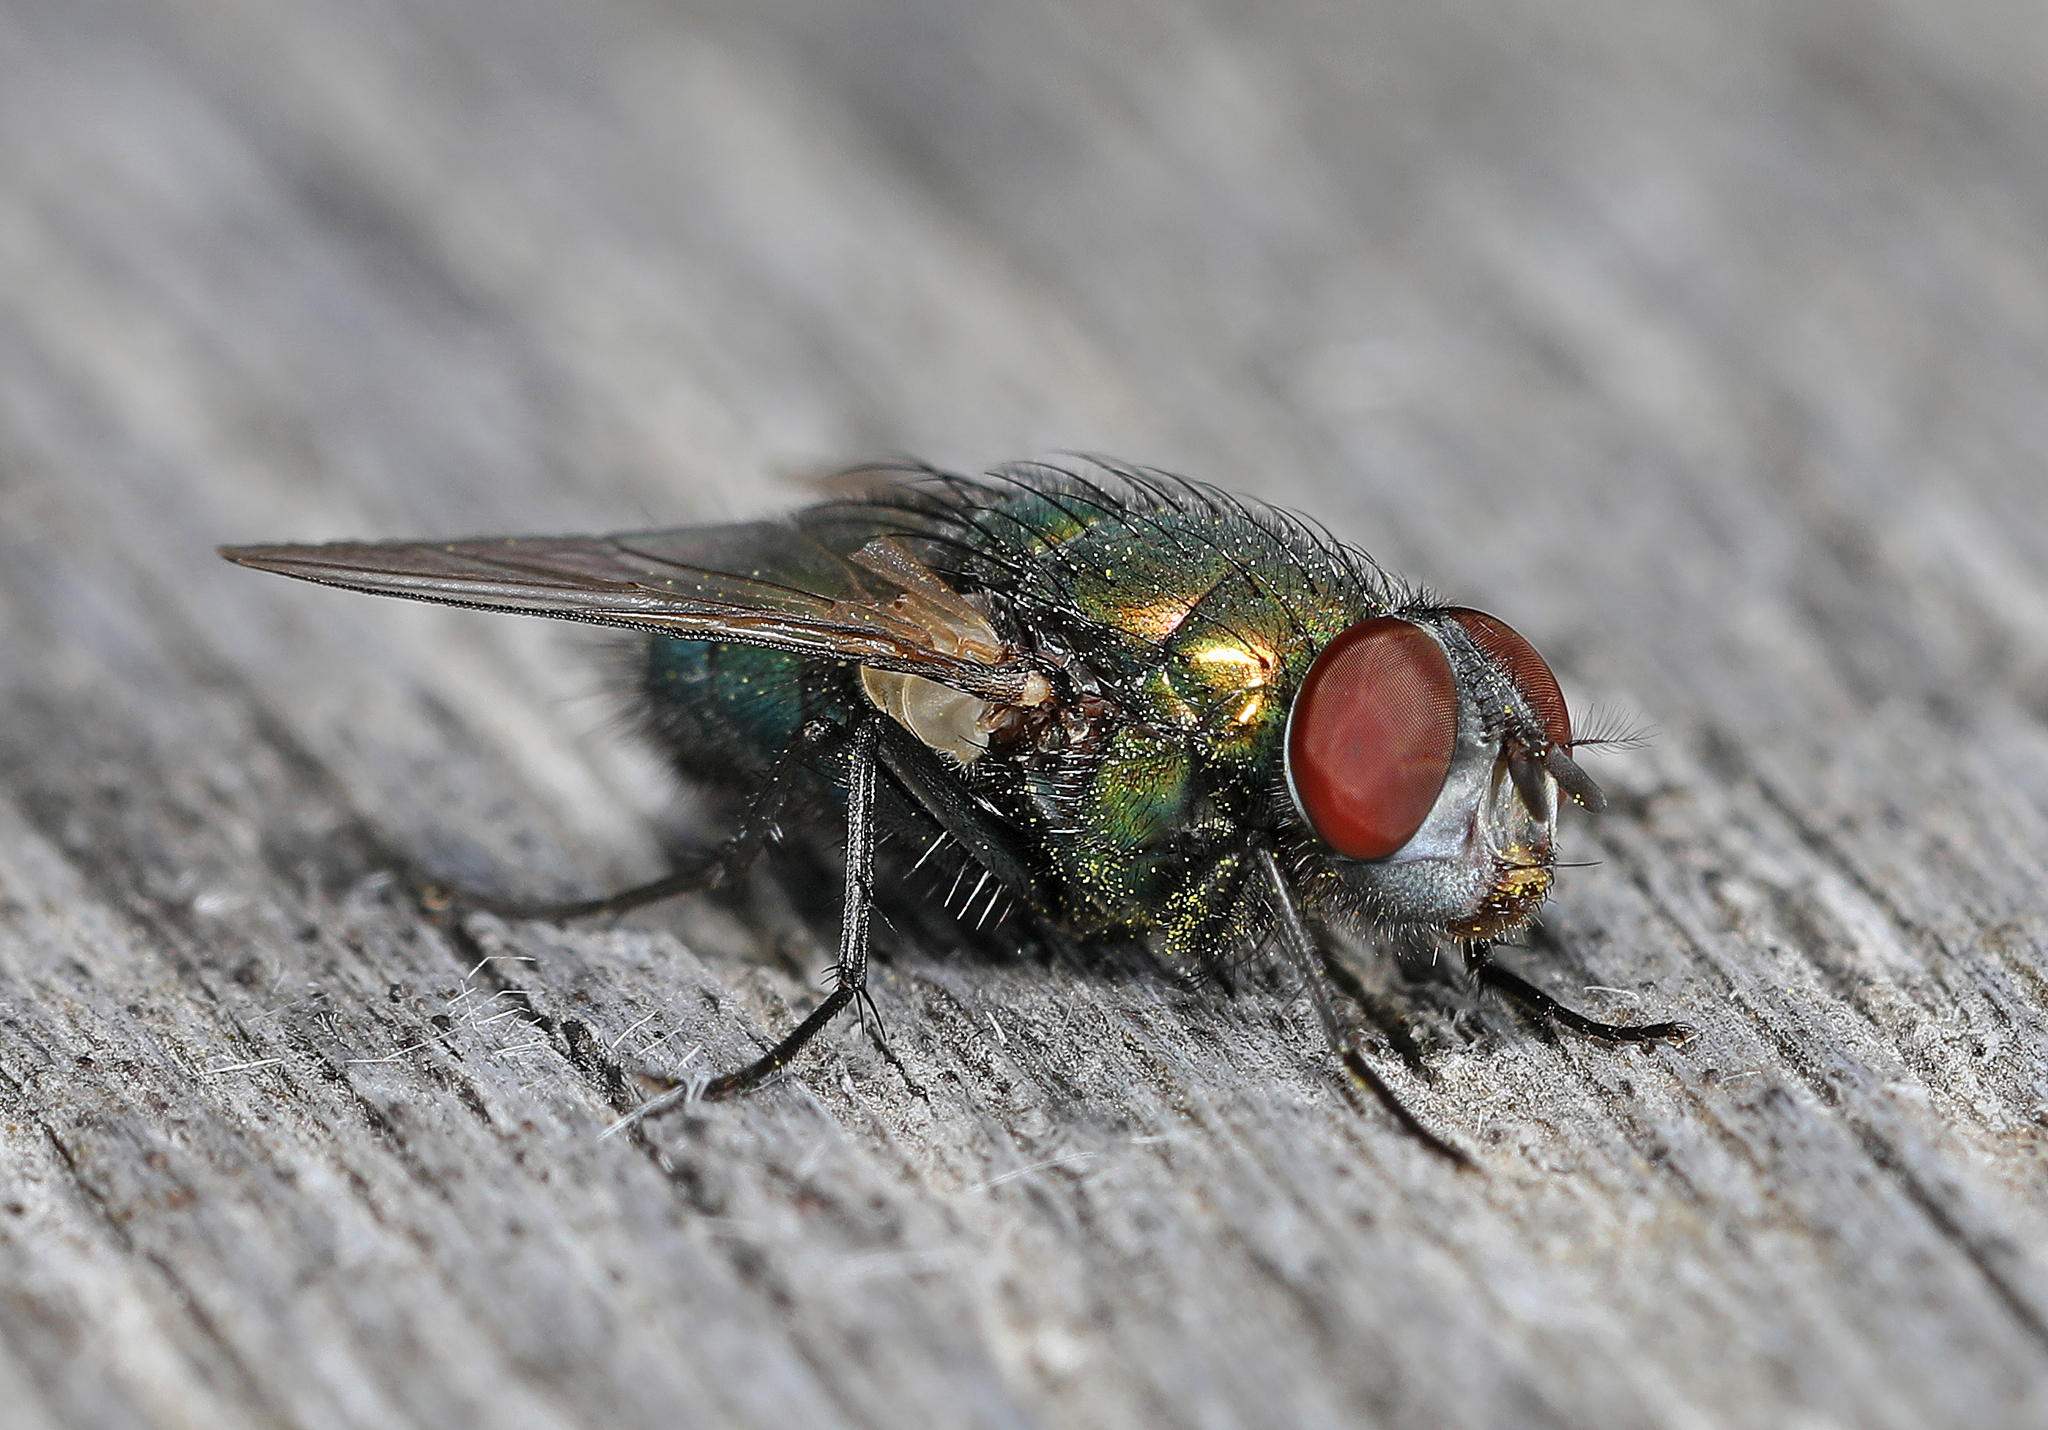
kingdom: Animalia
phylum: Arthropoda
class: Insecta
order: Diptera
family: Calliphoridae
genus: Lucilia
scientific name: Lucilia sericata
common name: Blow fly
